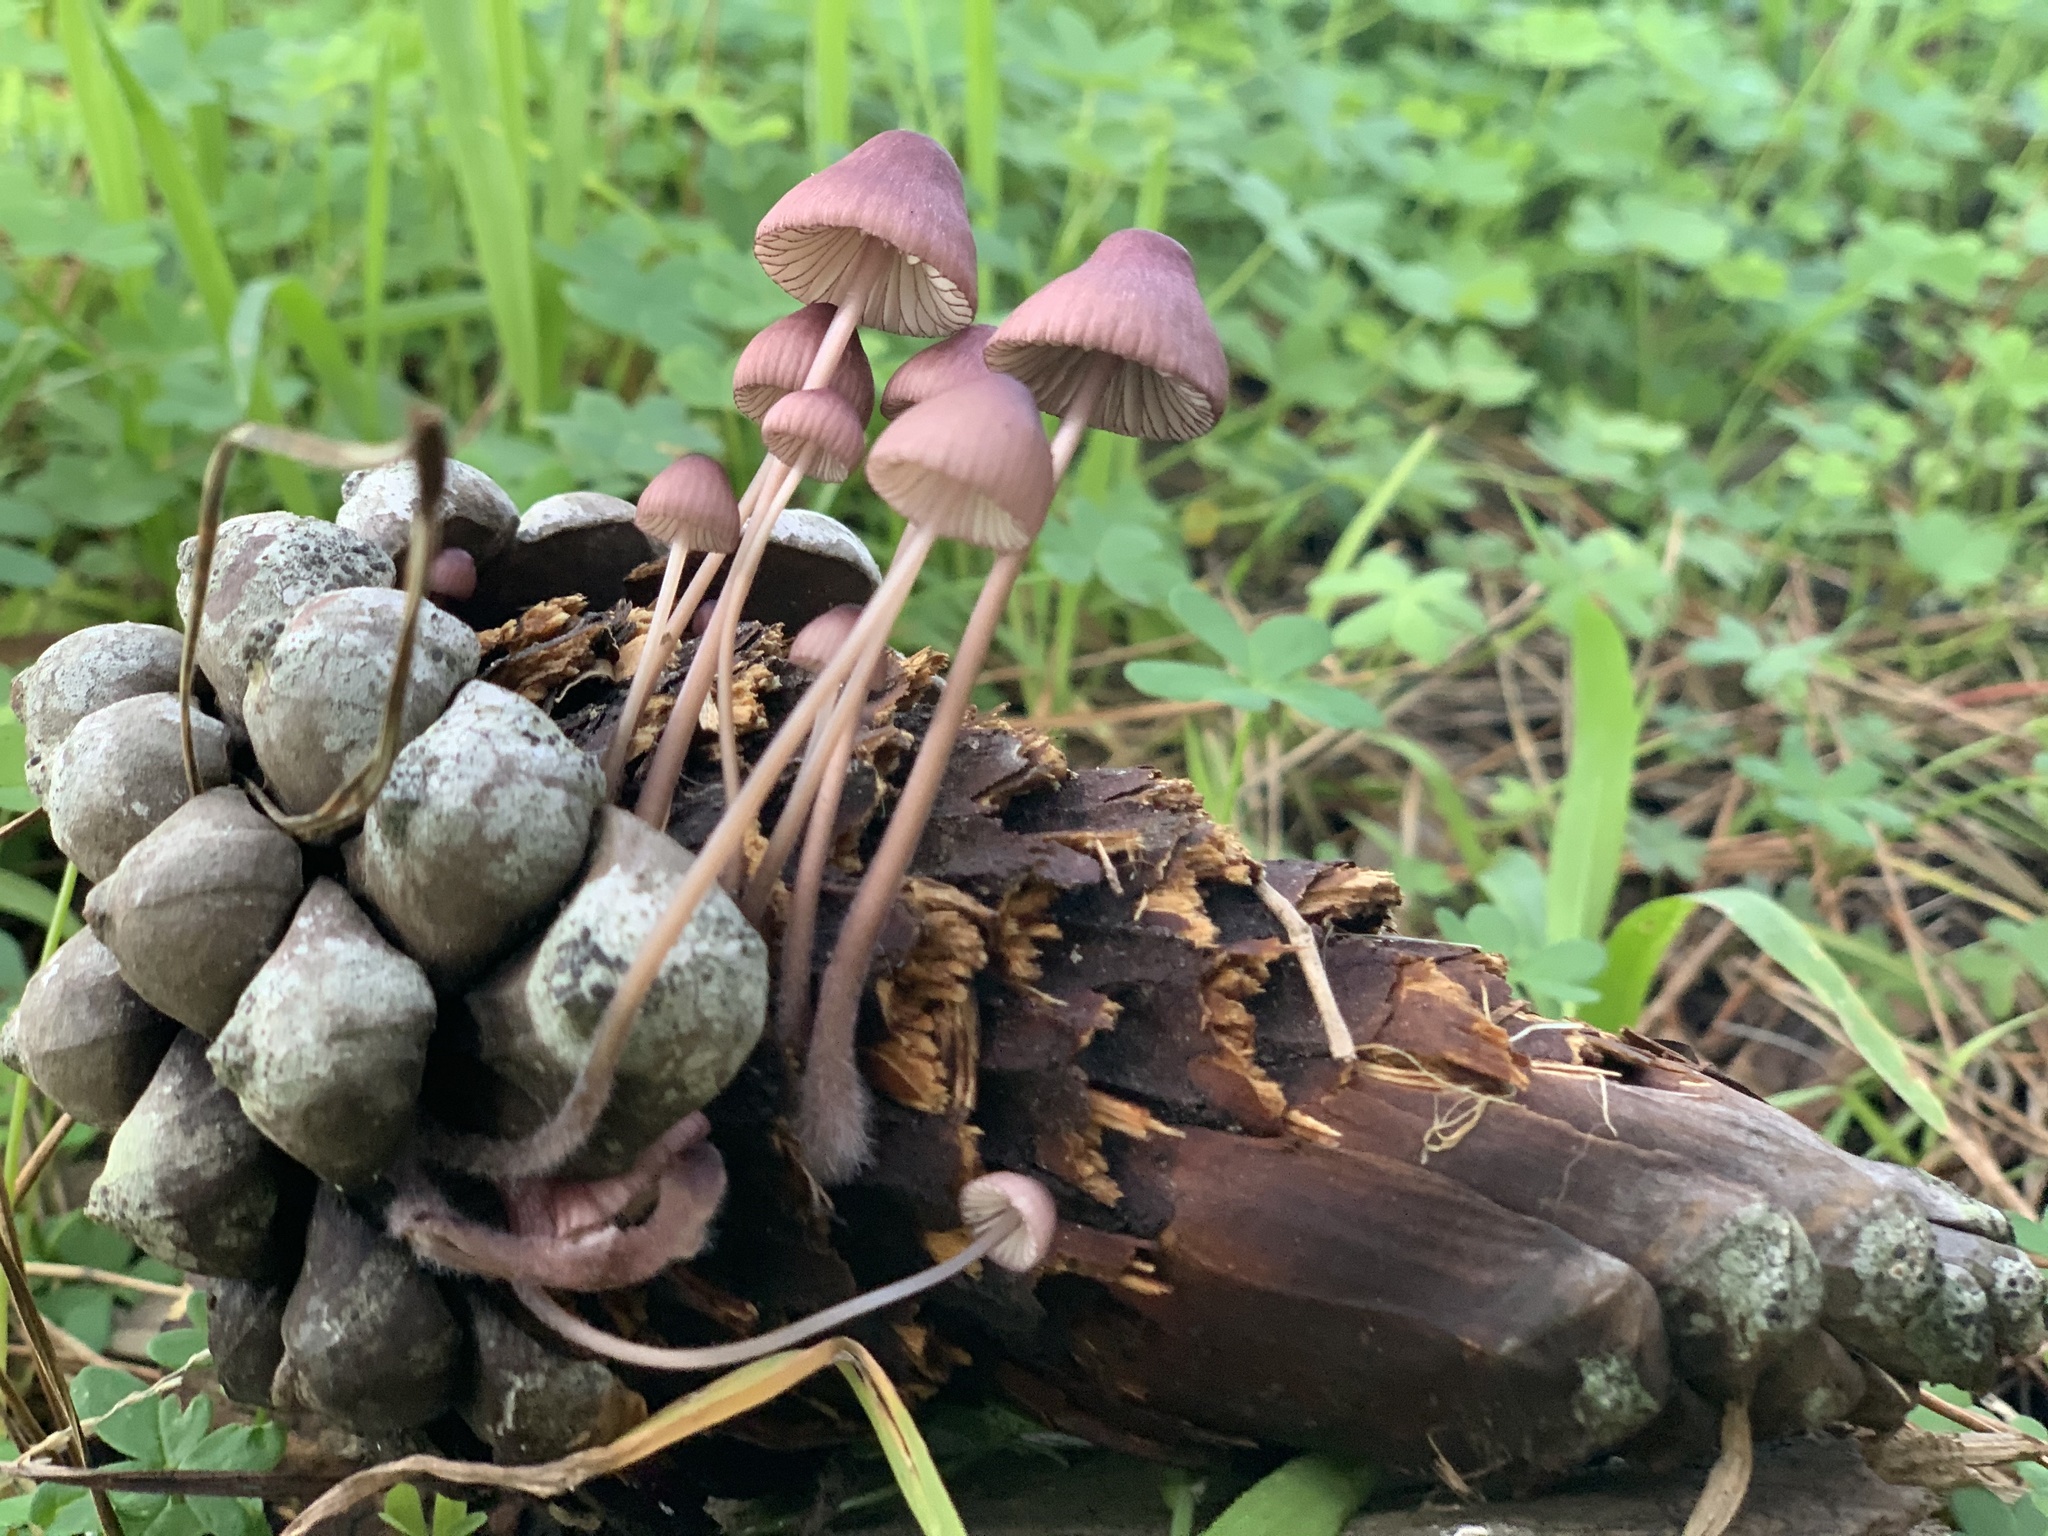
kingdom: Fungi
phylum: Basidiomycota
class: Agaricomycetes
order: Agaricales
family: Mycenaceae
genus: Mycena
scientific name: Mycena purpureofusca
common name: Purple edge bonnet
